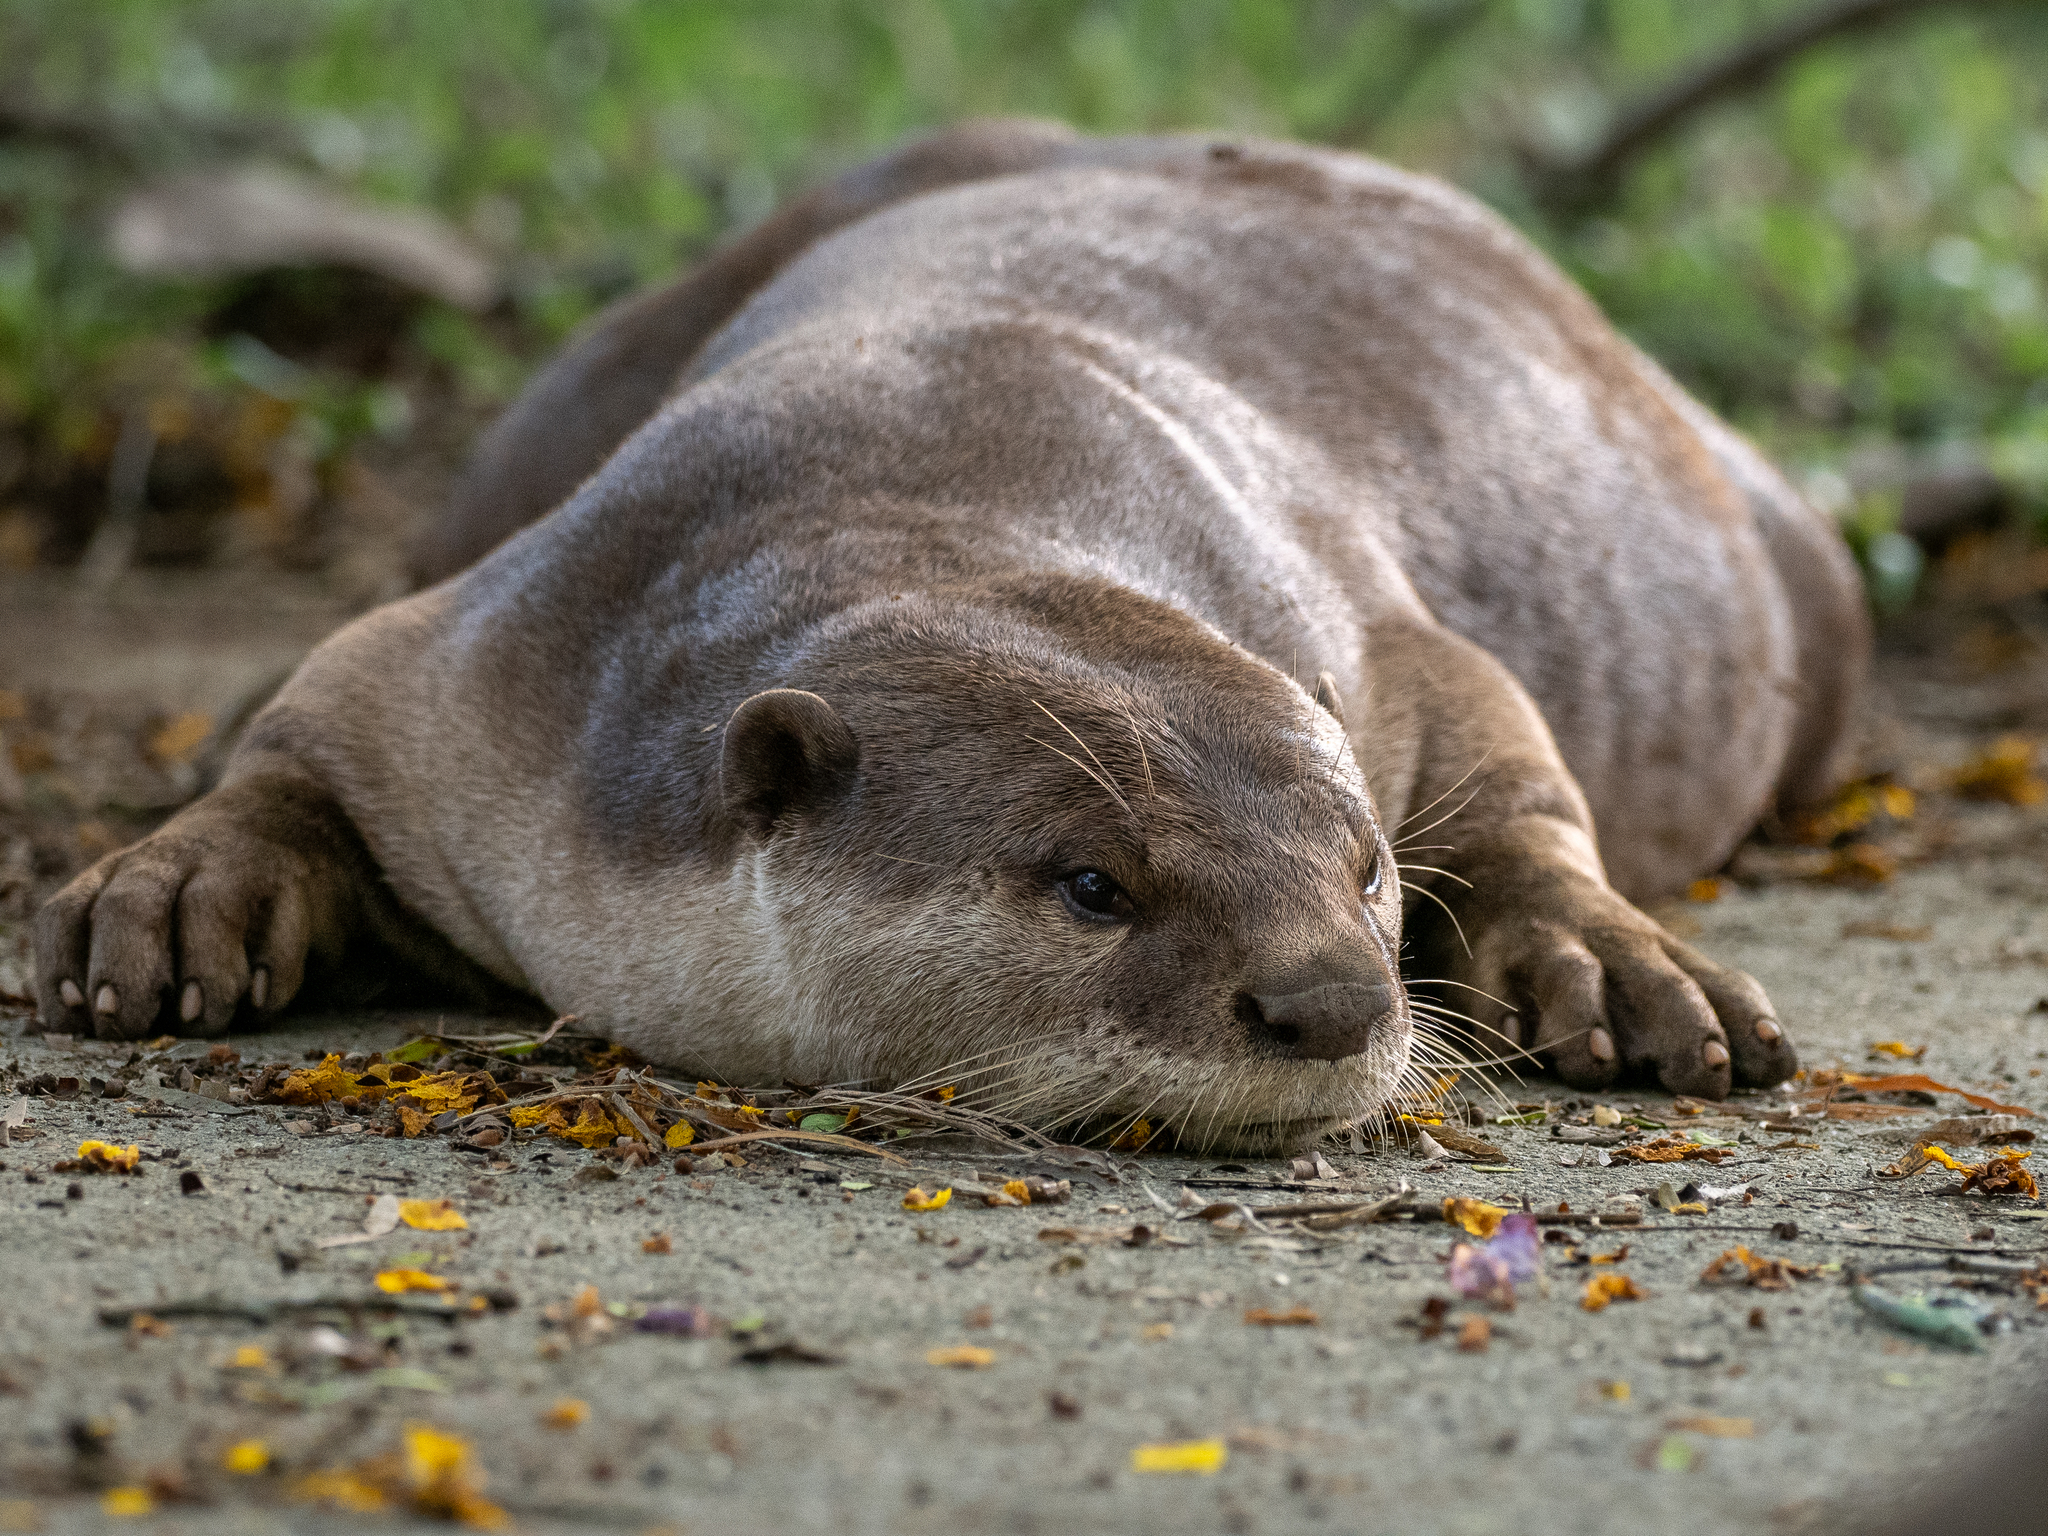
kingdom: Animalia
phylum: Chordata
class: Mammalia
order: Carnivora
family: Mustelidae
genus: Lutrogale
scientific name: Lutrogale perspicillata
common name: Smooth-coated otter
